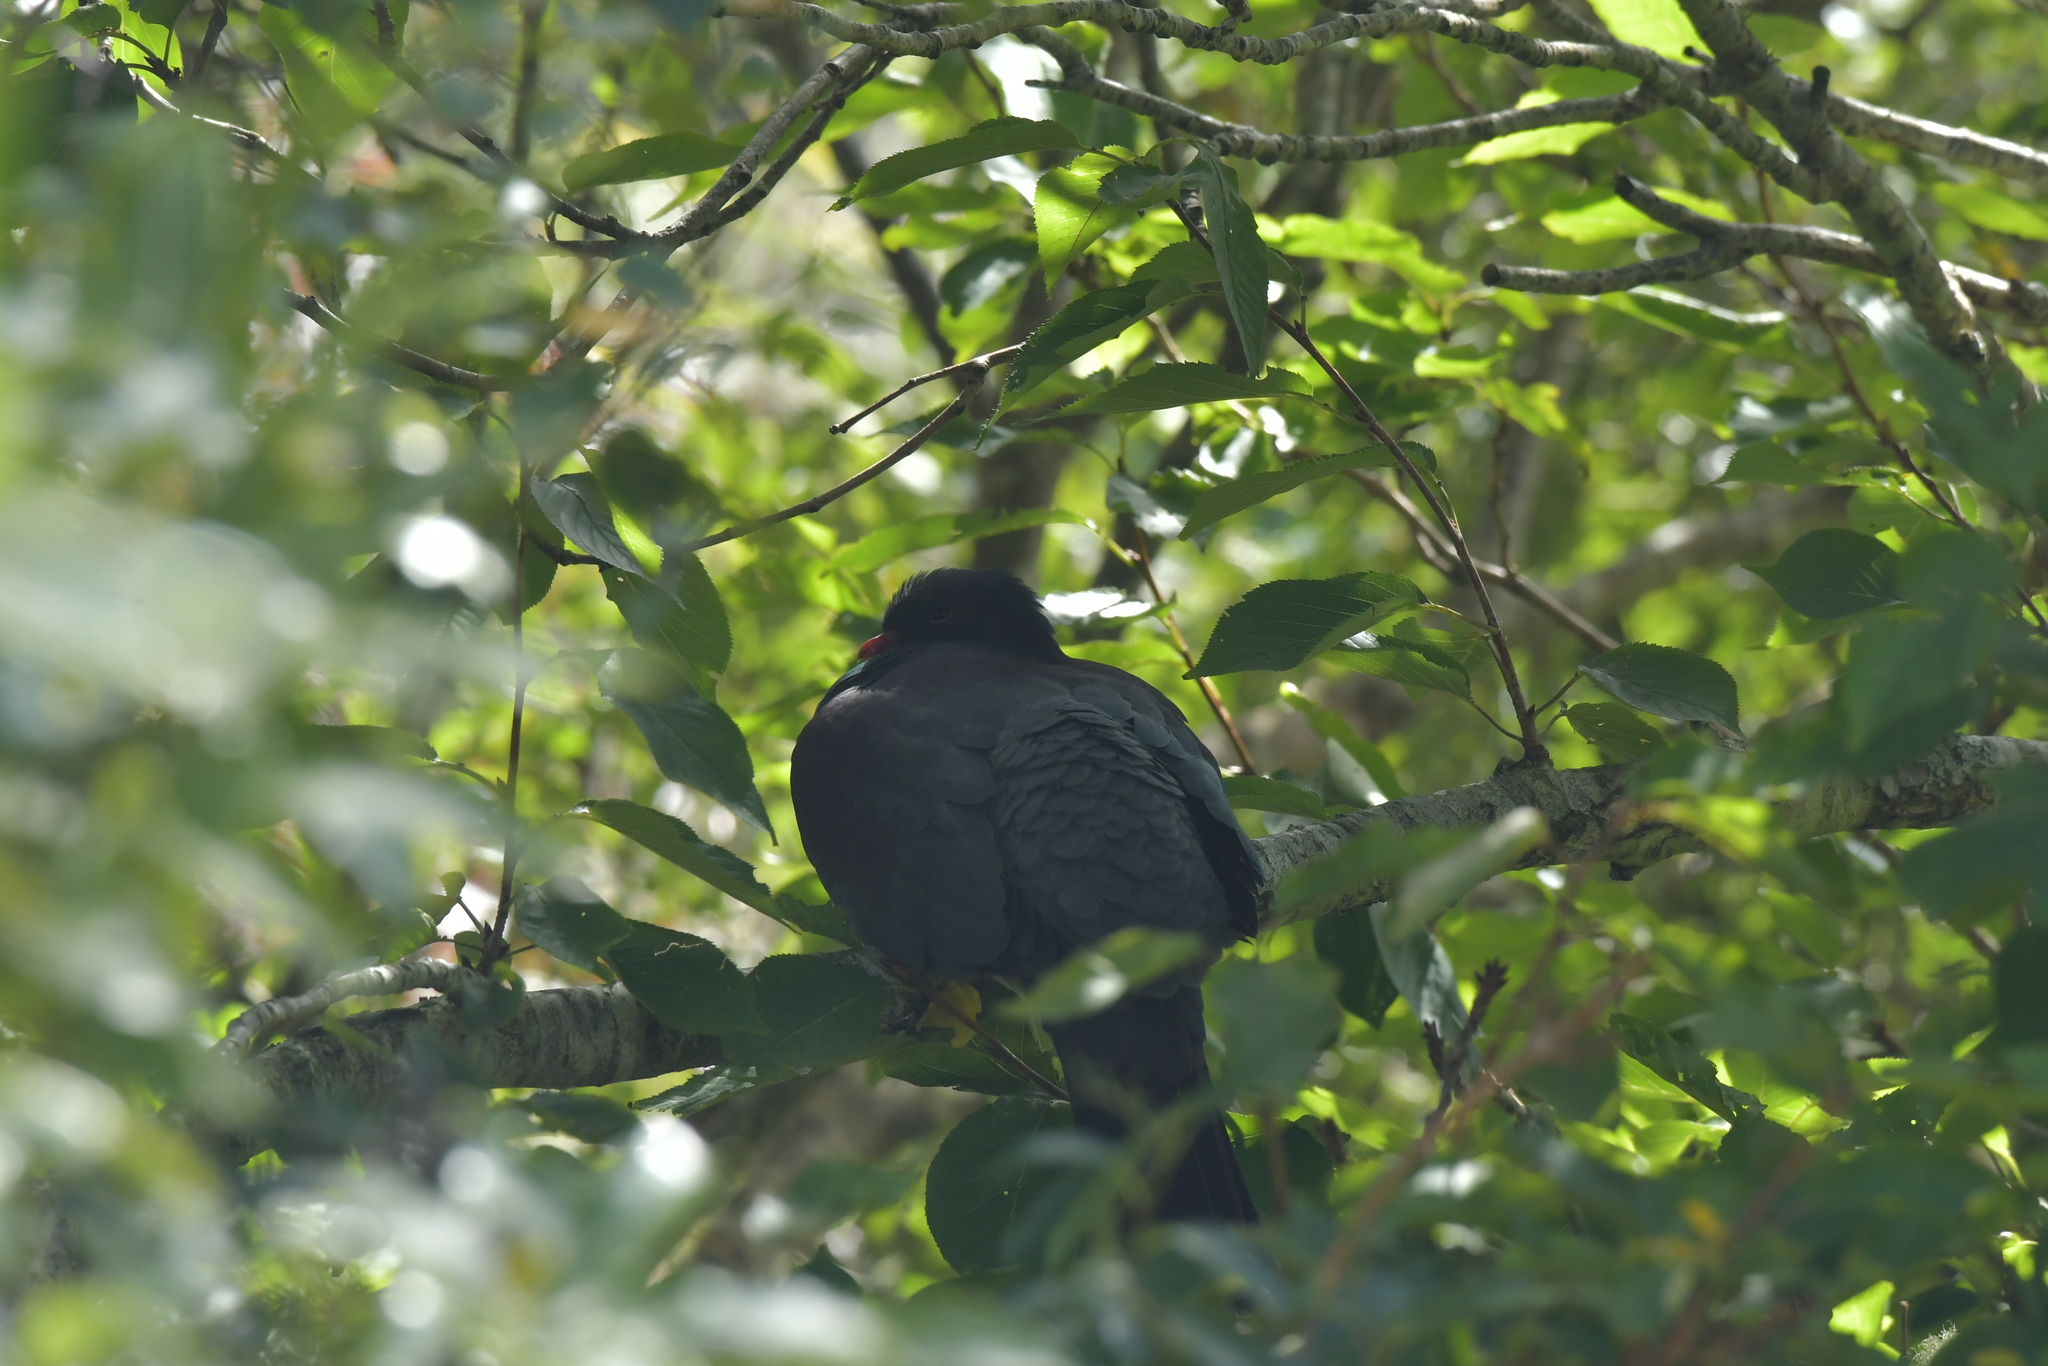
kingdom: Animalia
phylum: Chordata
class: Aves
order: Columbiformes
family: Columbidae
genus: Hemiphaga
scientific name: Hemiphaga novaeseelandiae
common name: New zealand pigeon
